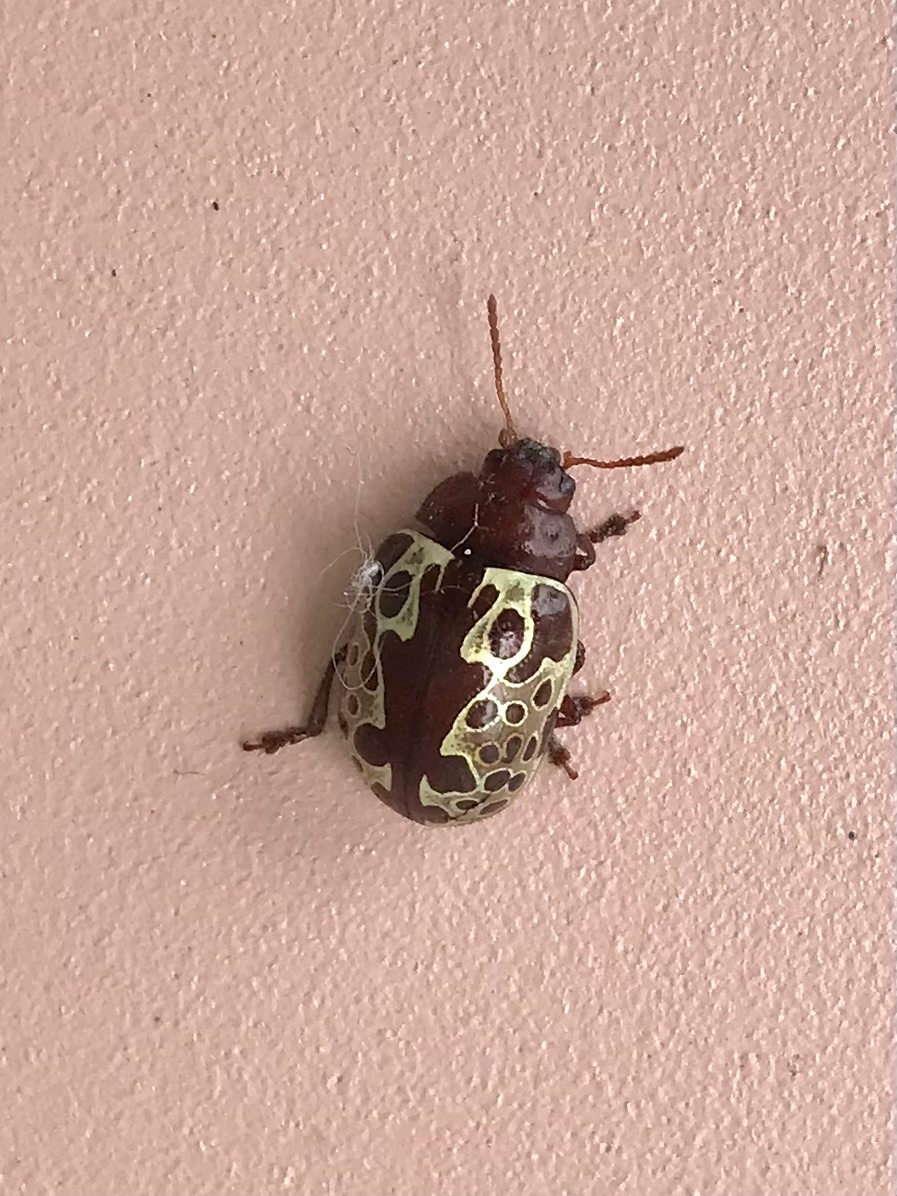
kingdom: Animalia
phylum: Arthropoda
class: Insecta
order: Coleoptera
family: Chrysomelidae
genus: Calligrapha
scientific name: Calligrapha argus
